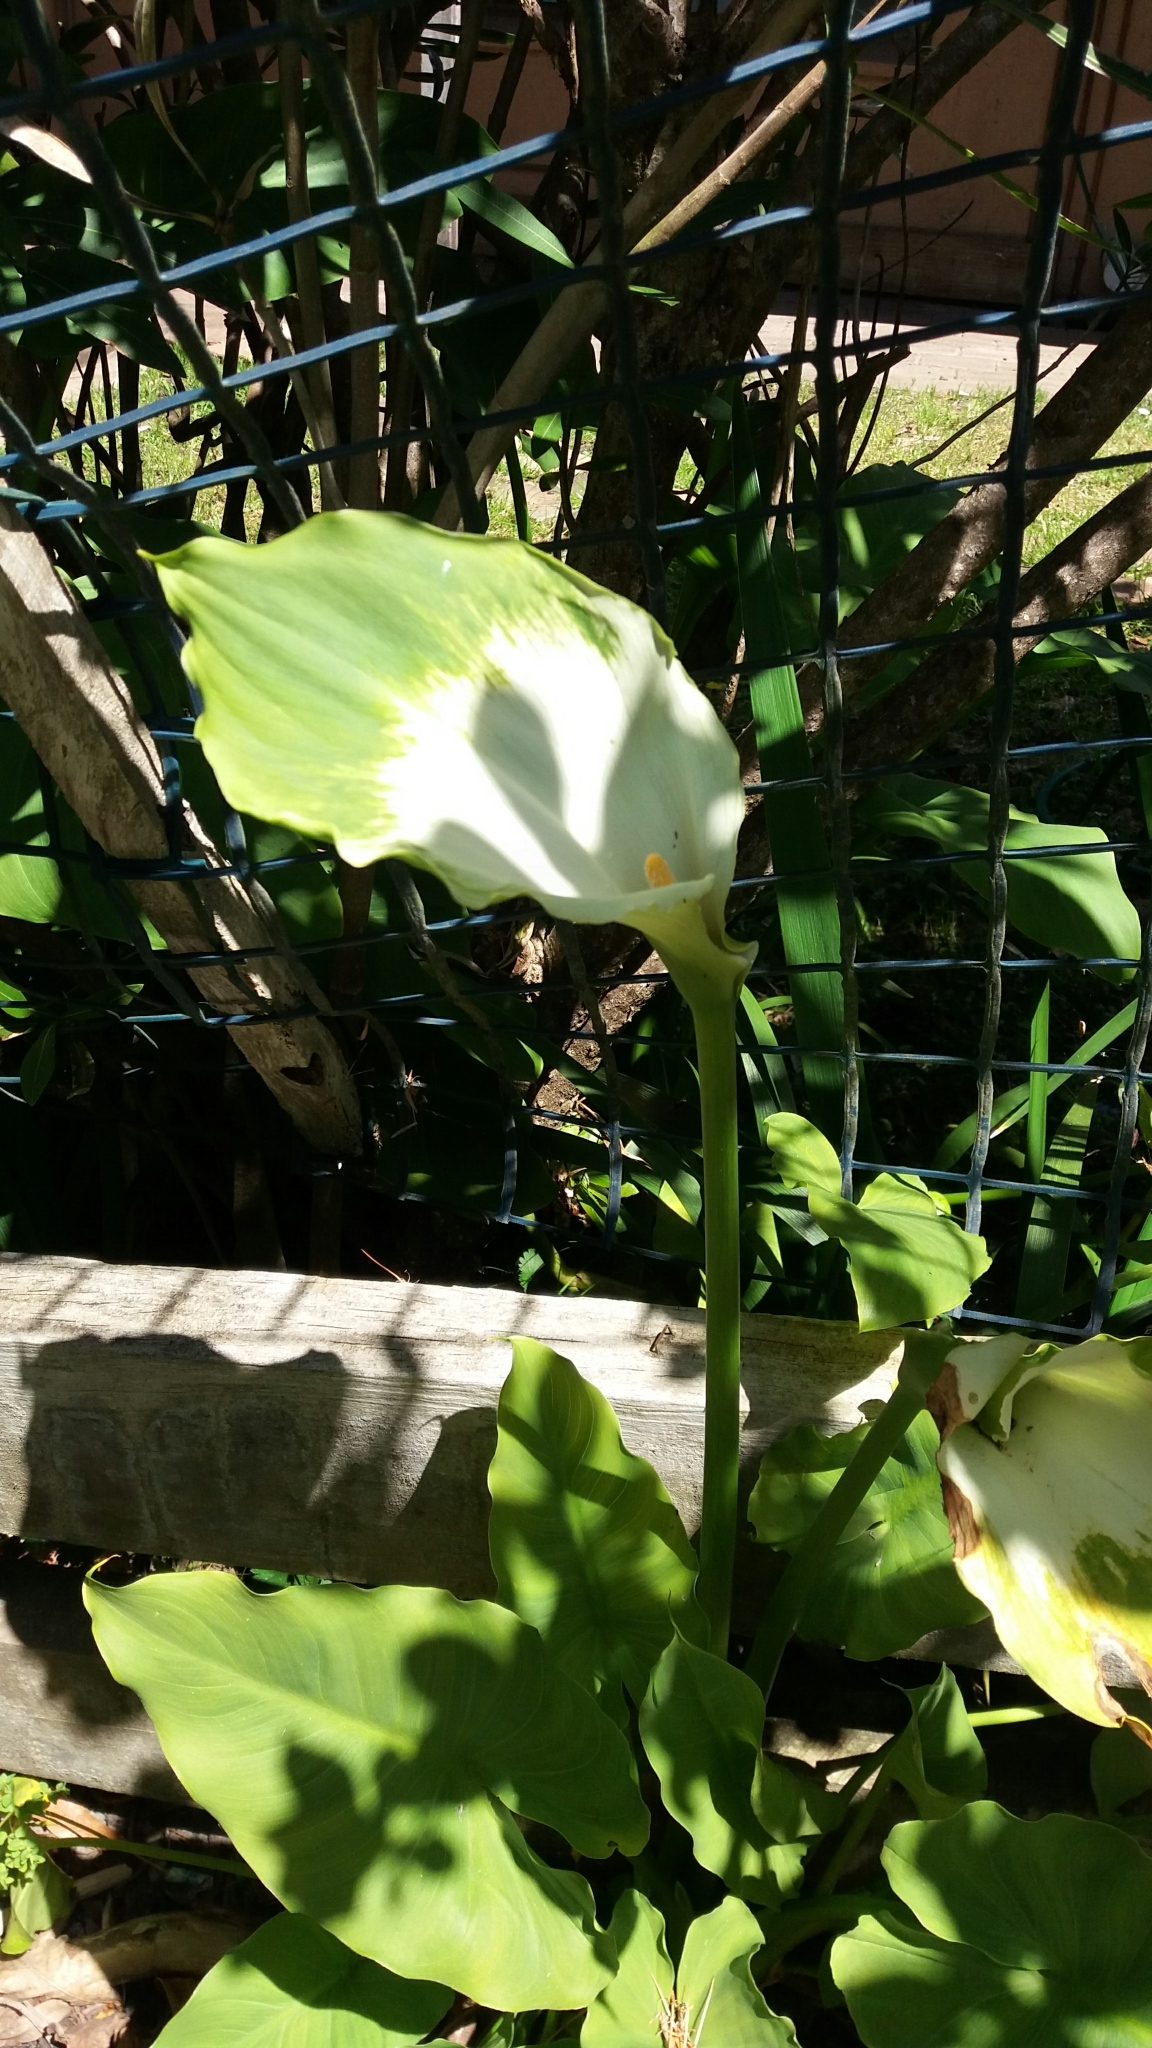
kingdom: Plantae
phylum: Tracheophyta
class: Liliopsida
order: Alismatales
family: Araceae
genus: Zantedeschia
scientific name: Zantedeschia aethiopica
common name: Altar-lily
